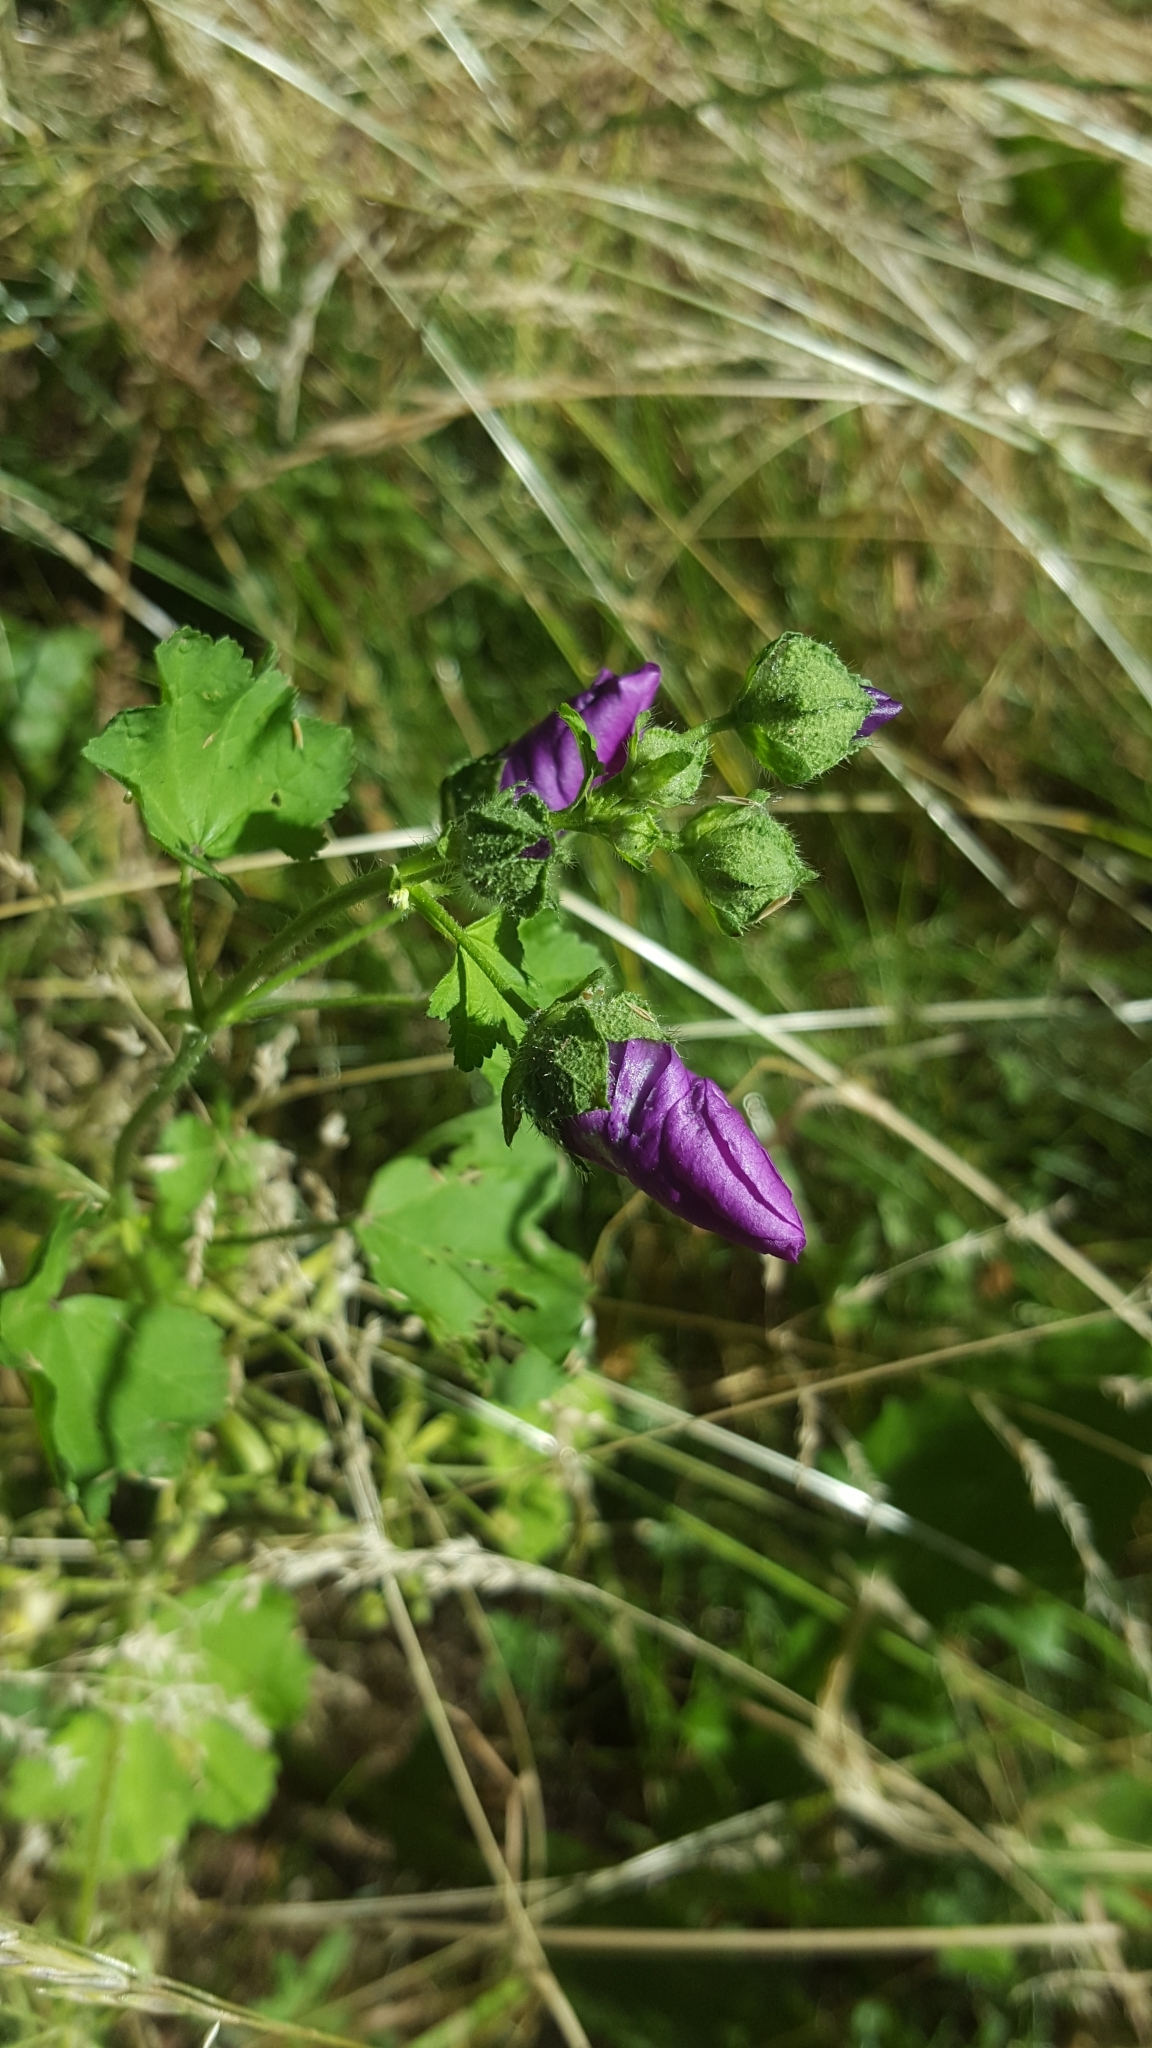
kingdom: Plantae
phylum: Tracheophyta
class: Magnoliopsida
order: Malvales
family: Malvaceae
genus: Malva
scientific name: Malva sylvestris
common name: Common mallow
